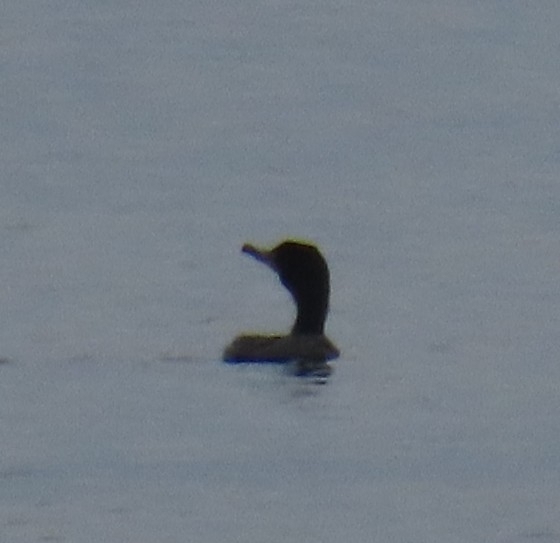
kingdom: Animalia
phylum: Chordata
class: Aves
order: Suliformes
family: Phalacrocoracidae
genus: Phalacrocorax
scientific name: Phalacrocorax auritus
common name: Double-crested cormorant
